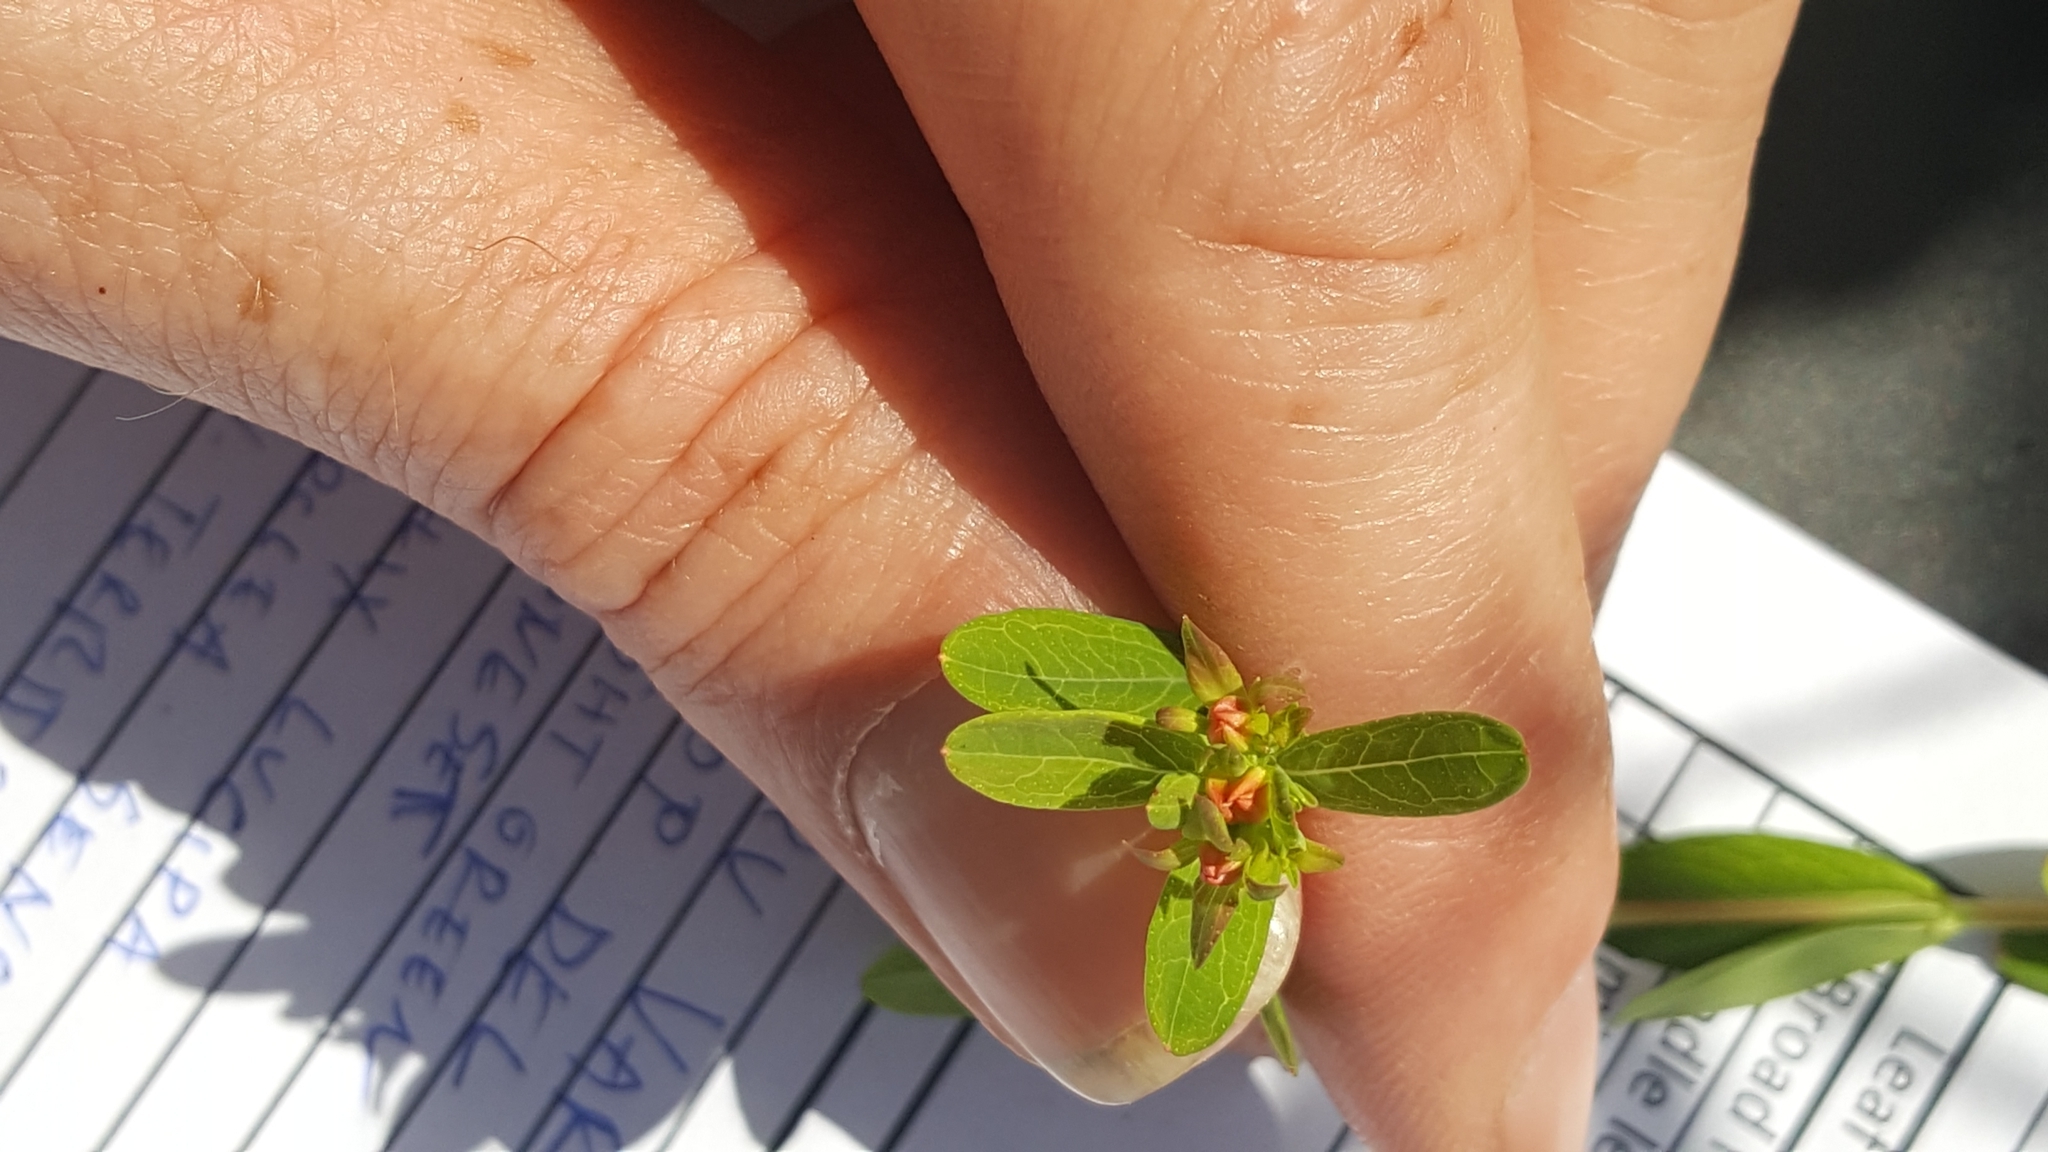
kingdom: Plantae
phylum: Tracheophyta
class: Magnoliopsida
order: Malpighiales
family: Hypericaceae
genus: Hypericum
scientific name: Hypericum ellipticum
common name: Elliptic st. john's-wort
